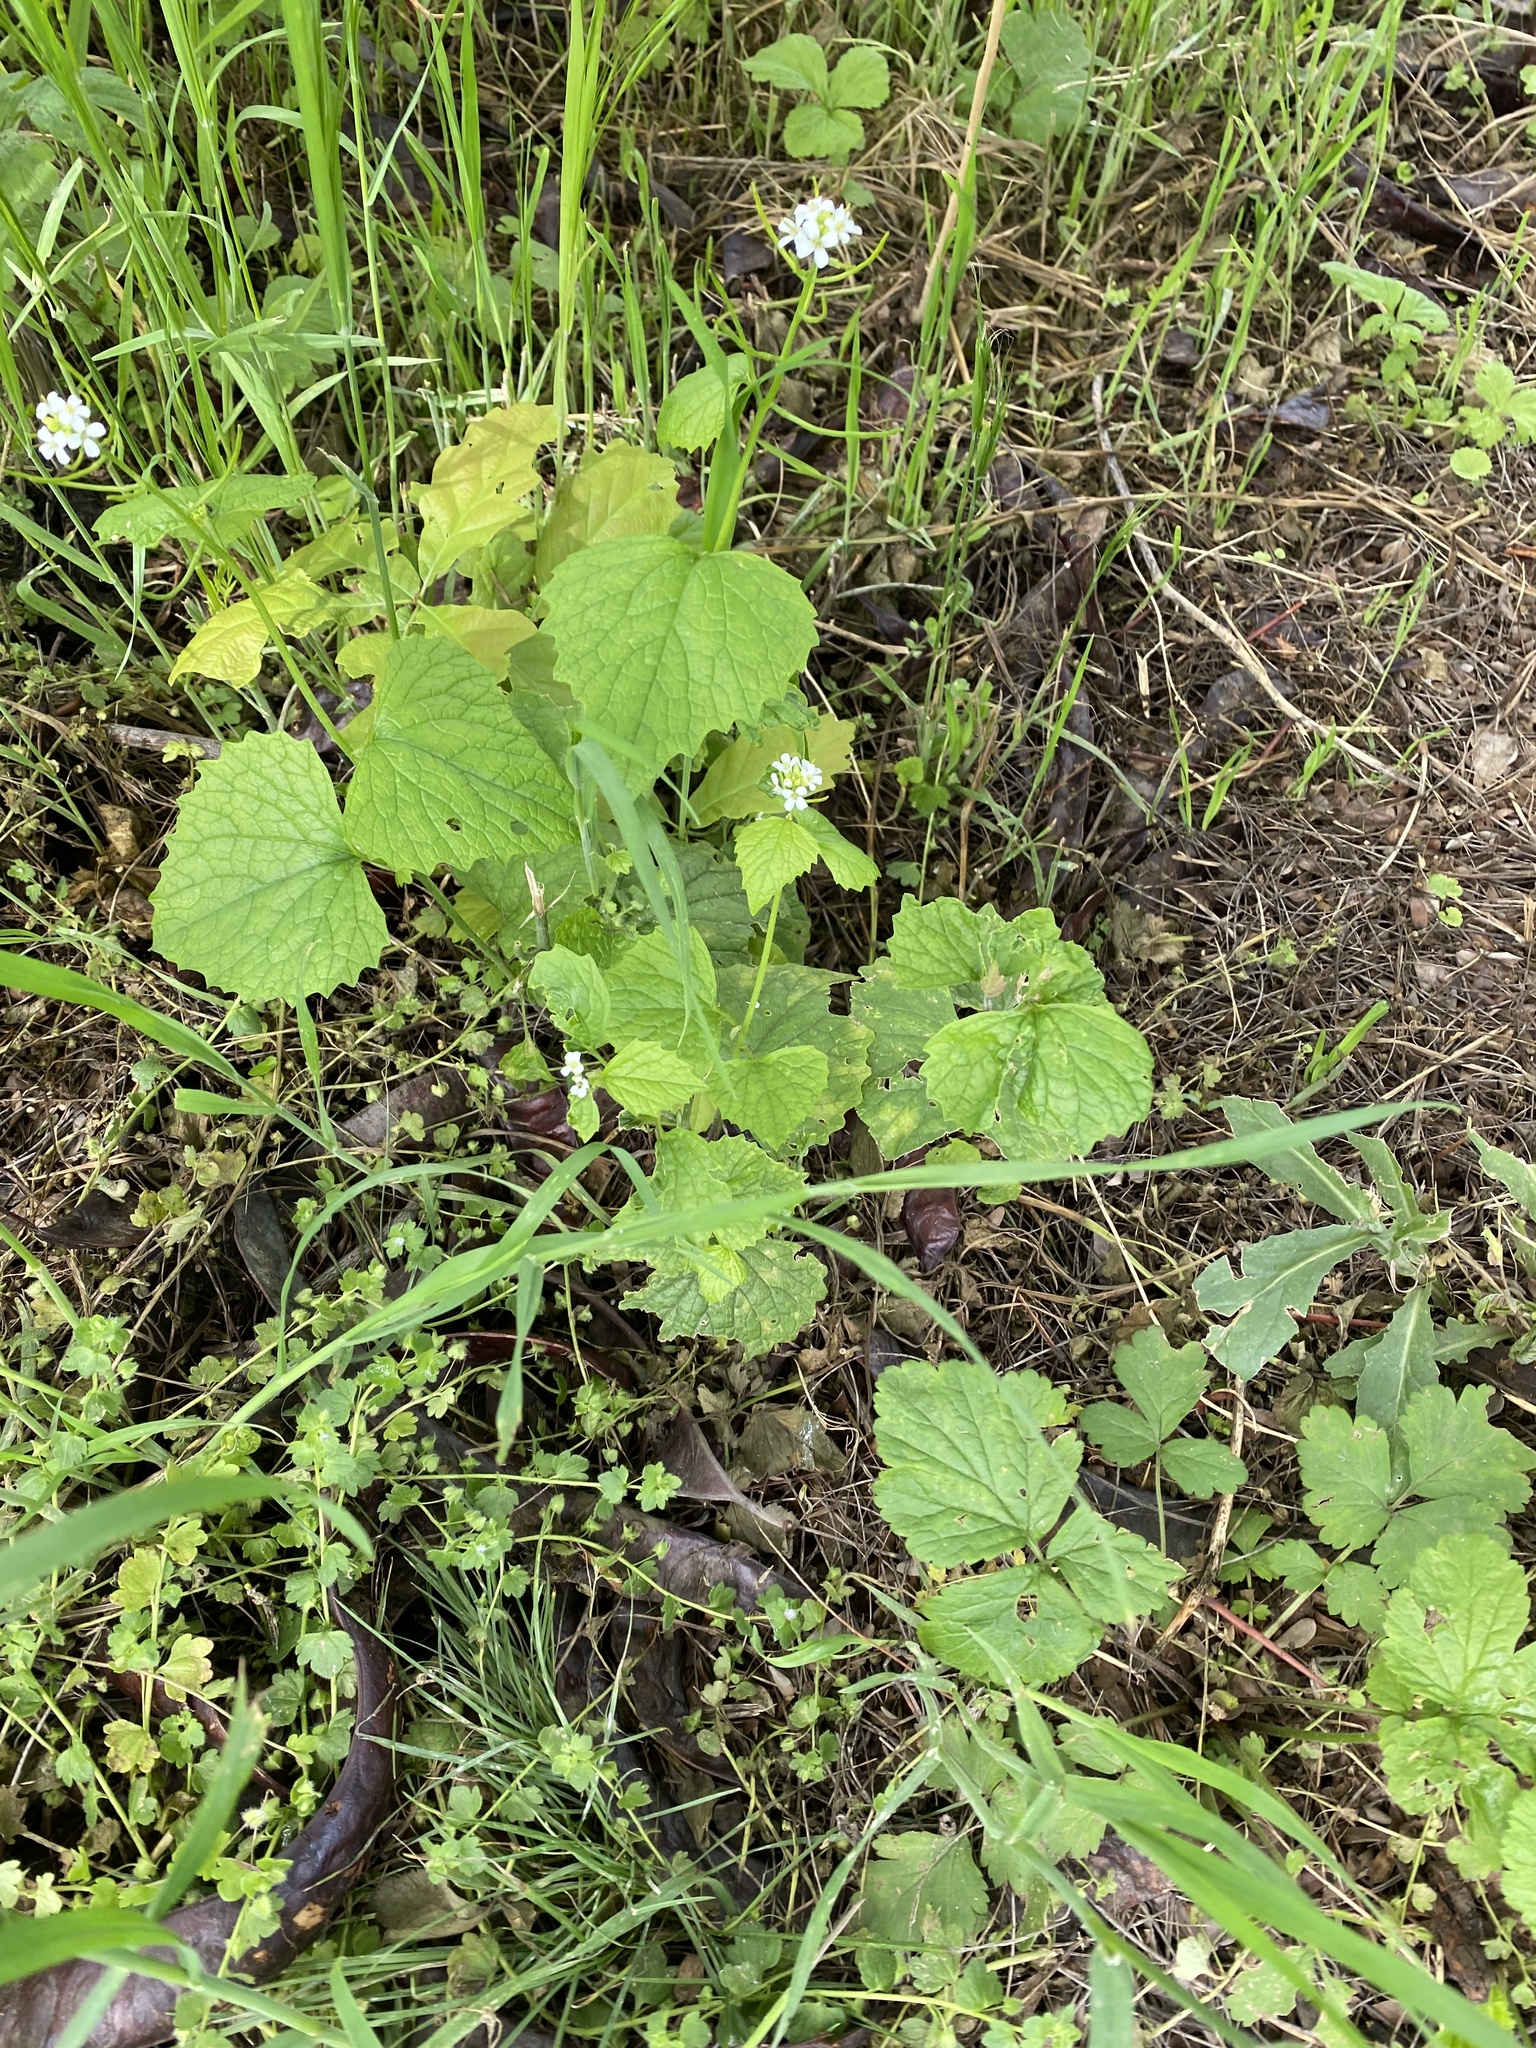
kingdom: Plantae
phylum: Tracheophyta
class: Magnoliopsida
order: Brassicales
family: Brassicaceae
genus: Alliaria
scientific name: Alliaria petiolata
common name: Garlic mustard
